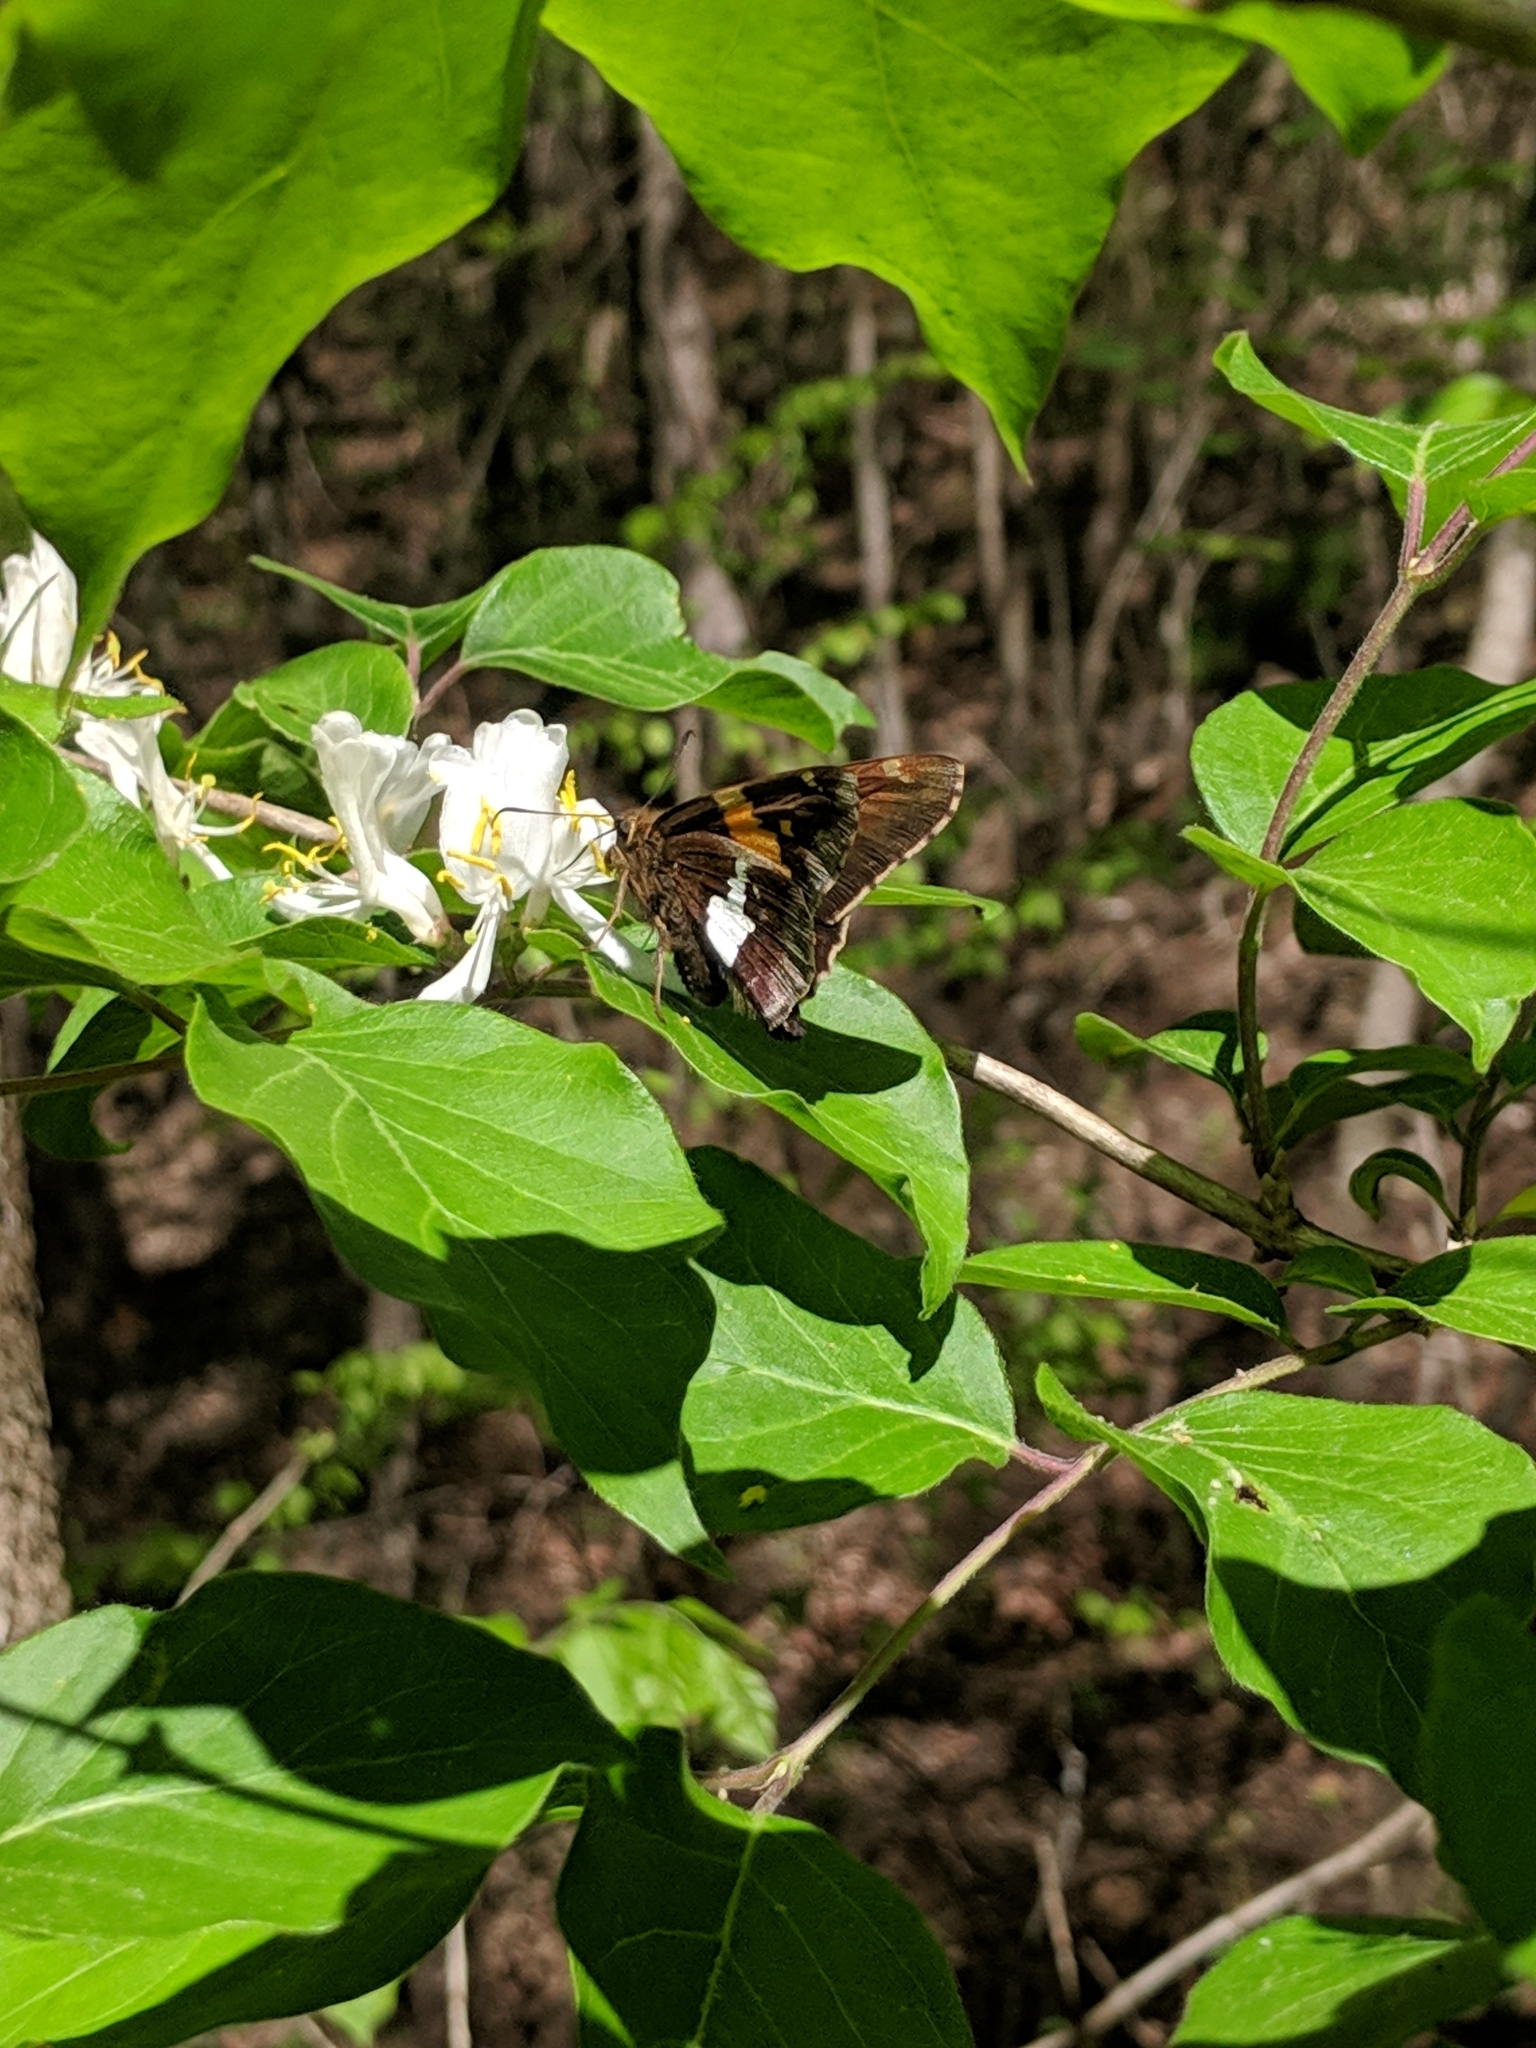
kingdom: Animalia
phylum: Arthropoda
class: Insecta
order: Lepidoptera
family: Hesperiidae
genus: Epargyreus
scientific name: Epargyreus clarus
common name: Silver-spotted skipper
